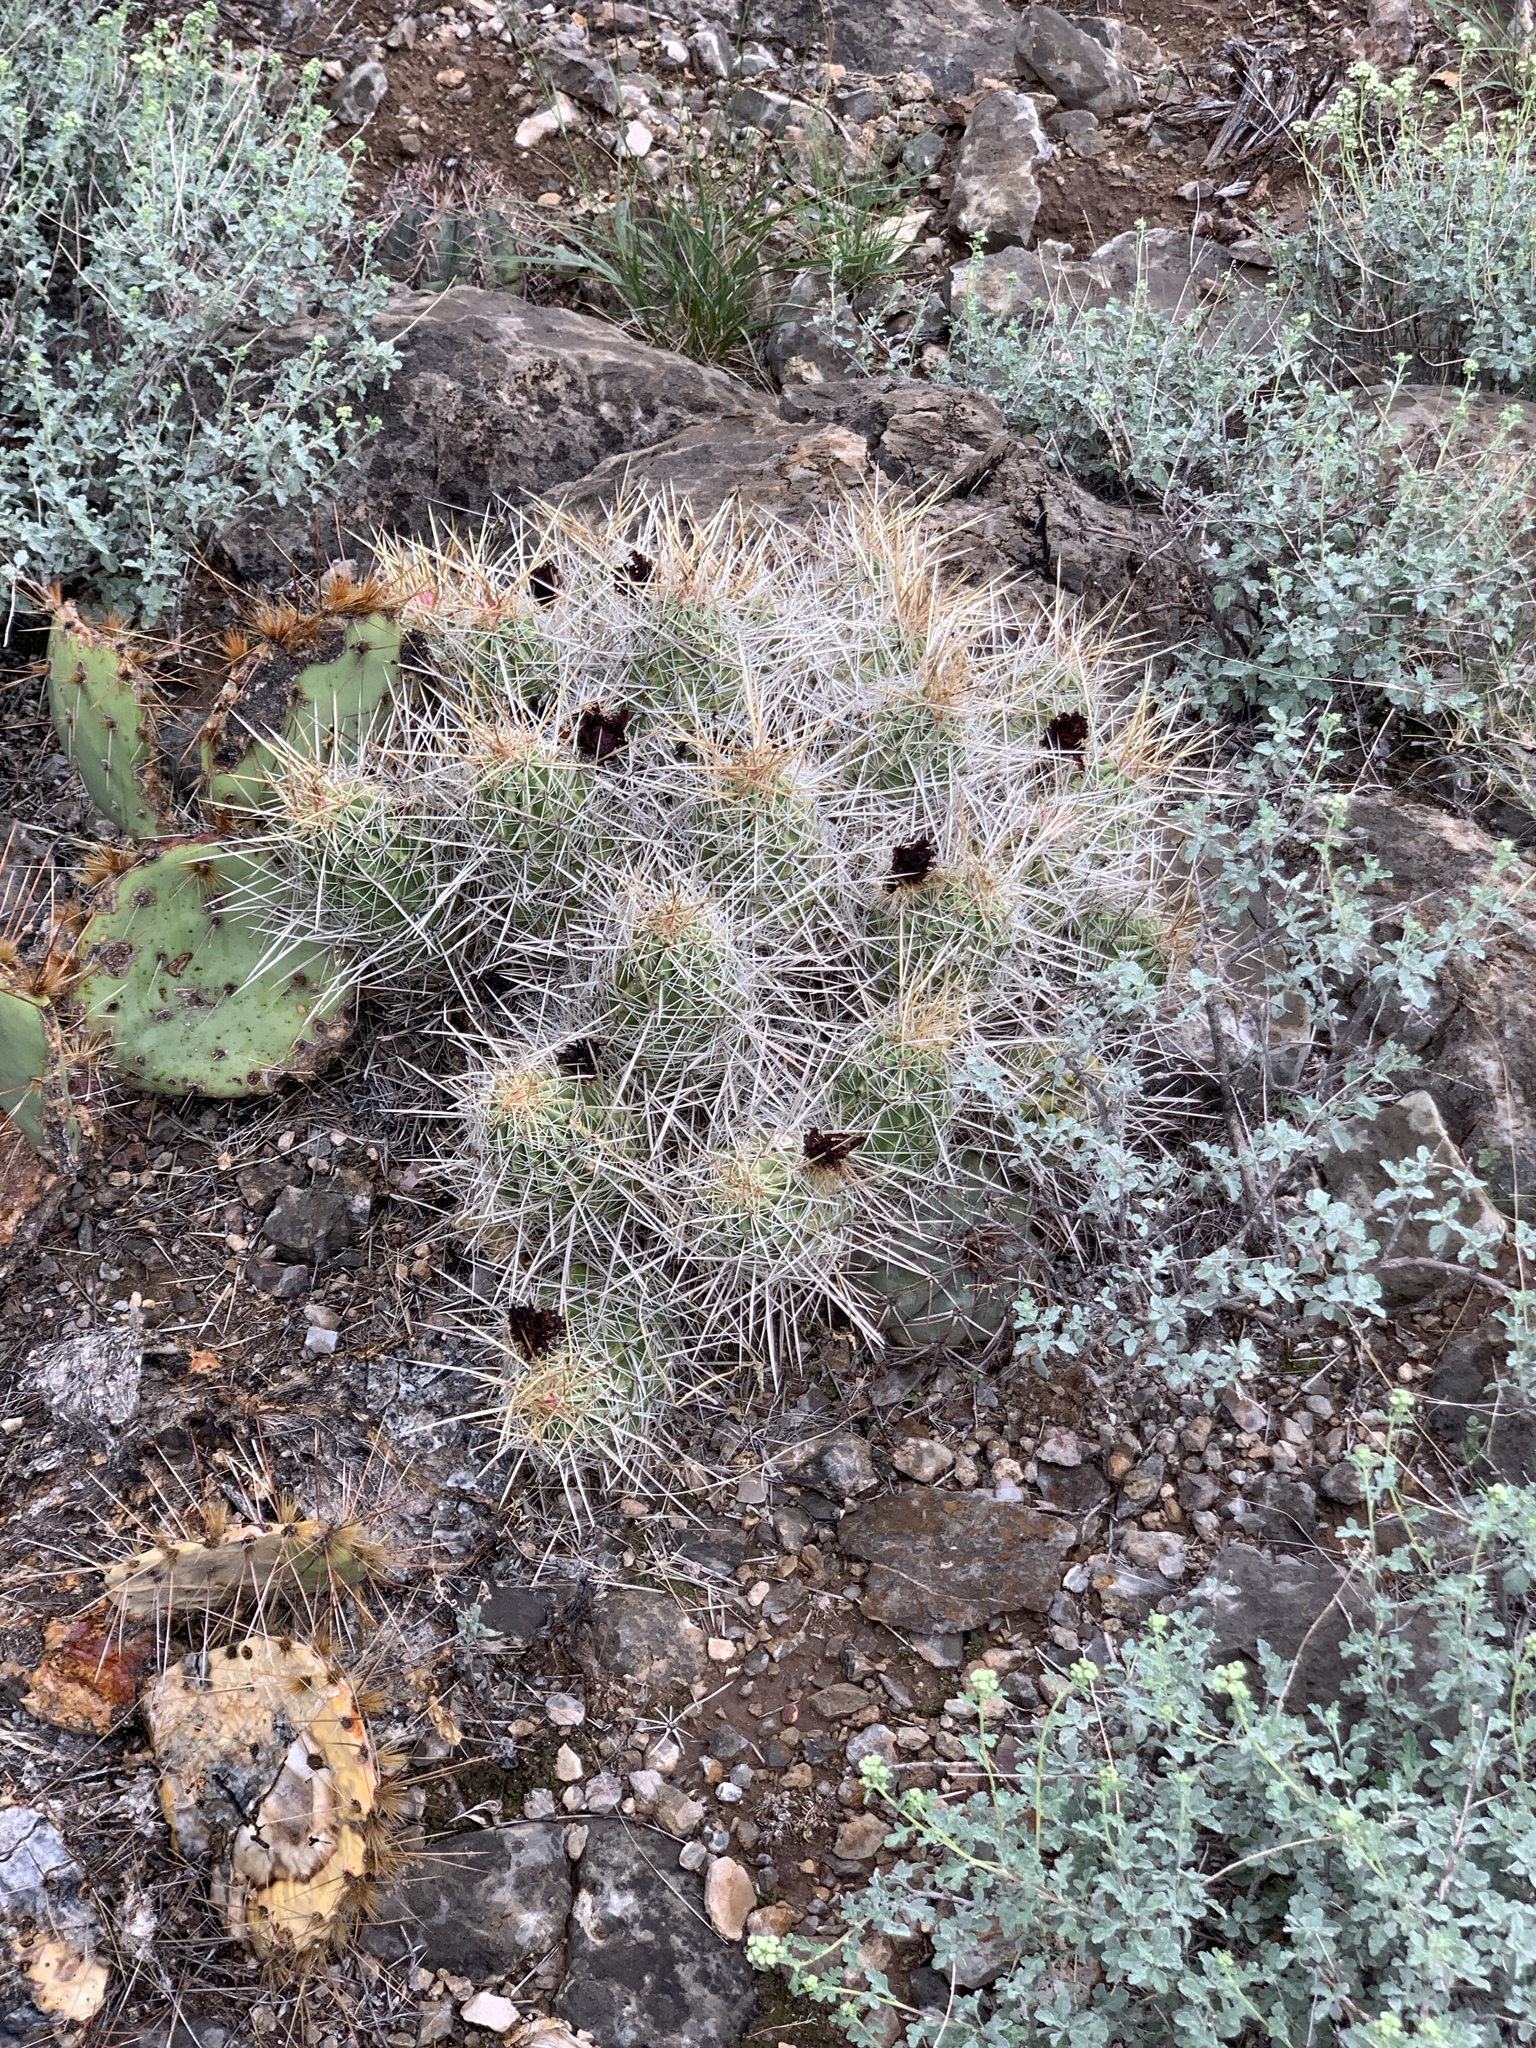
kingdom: Plantae
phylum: Tracheophyta
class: Magnoliopsida
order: Caryophyllales
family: Cactaceae
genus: Echinocereus
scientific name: Echinocereus stramineus
